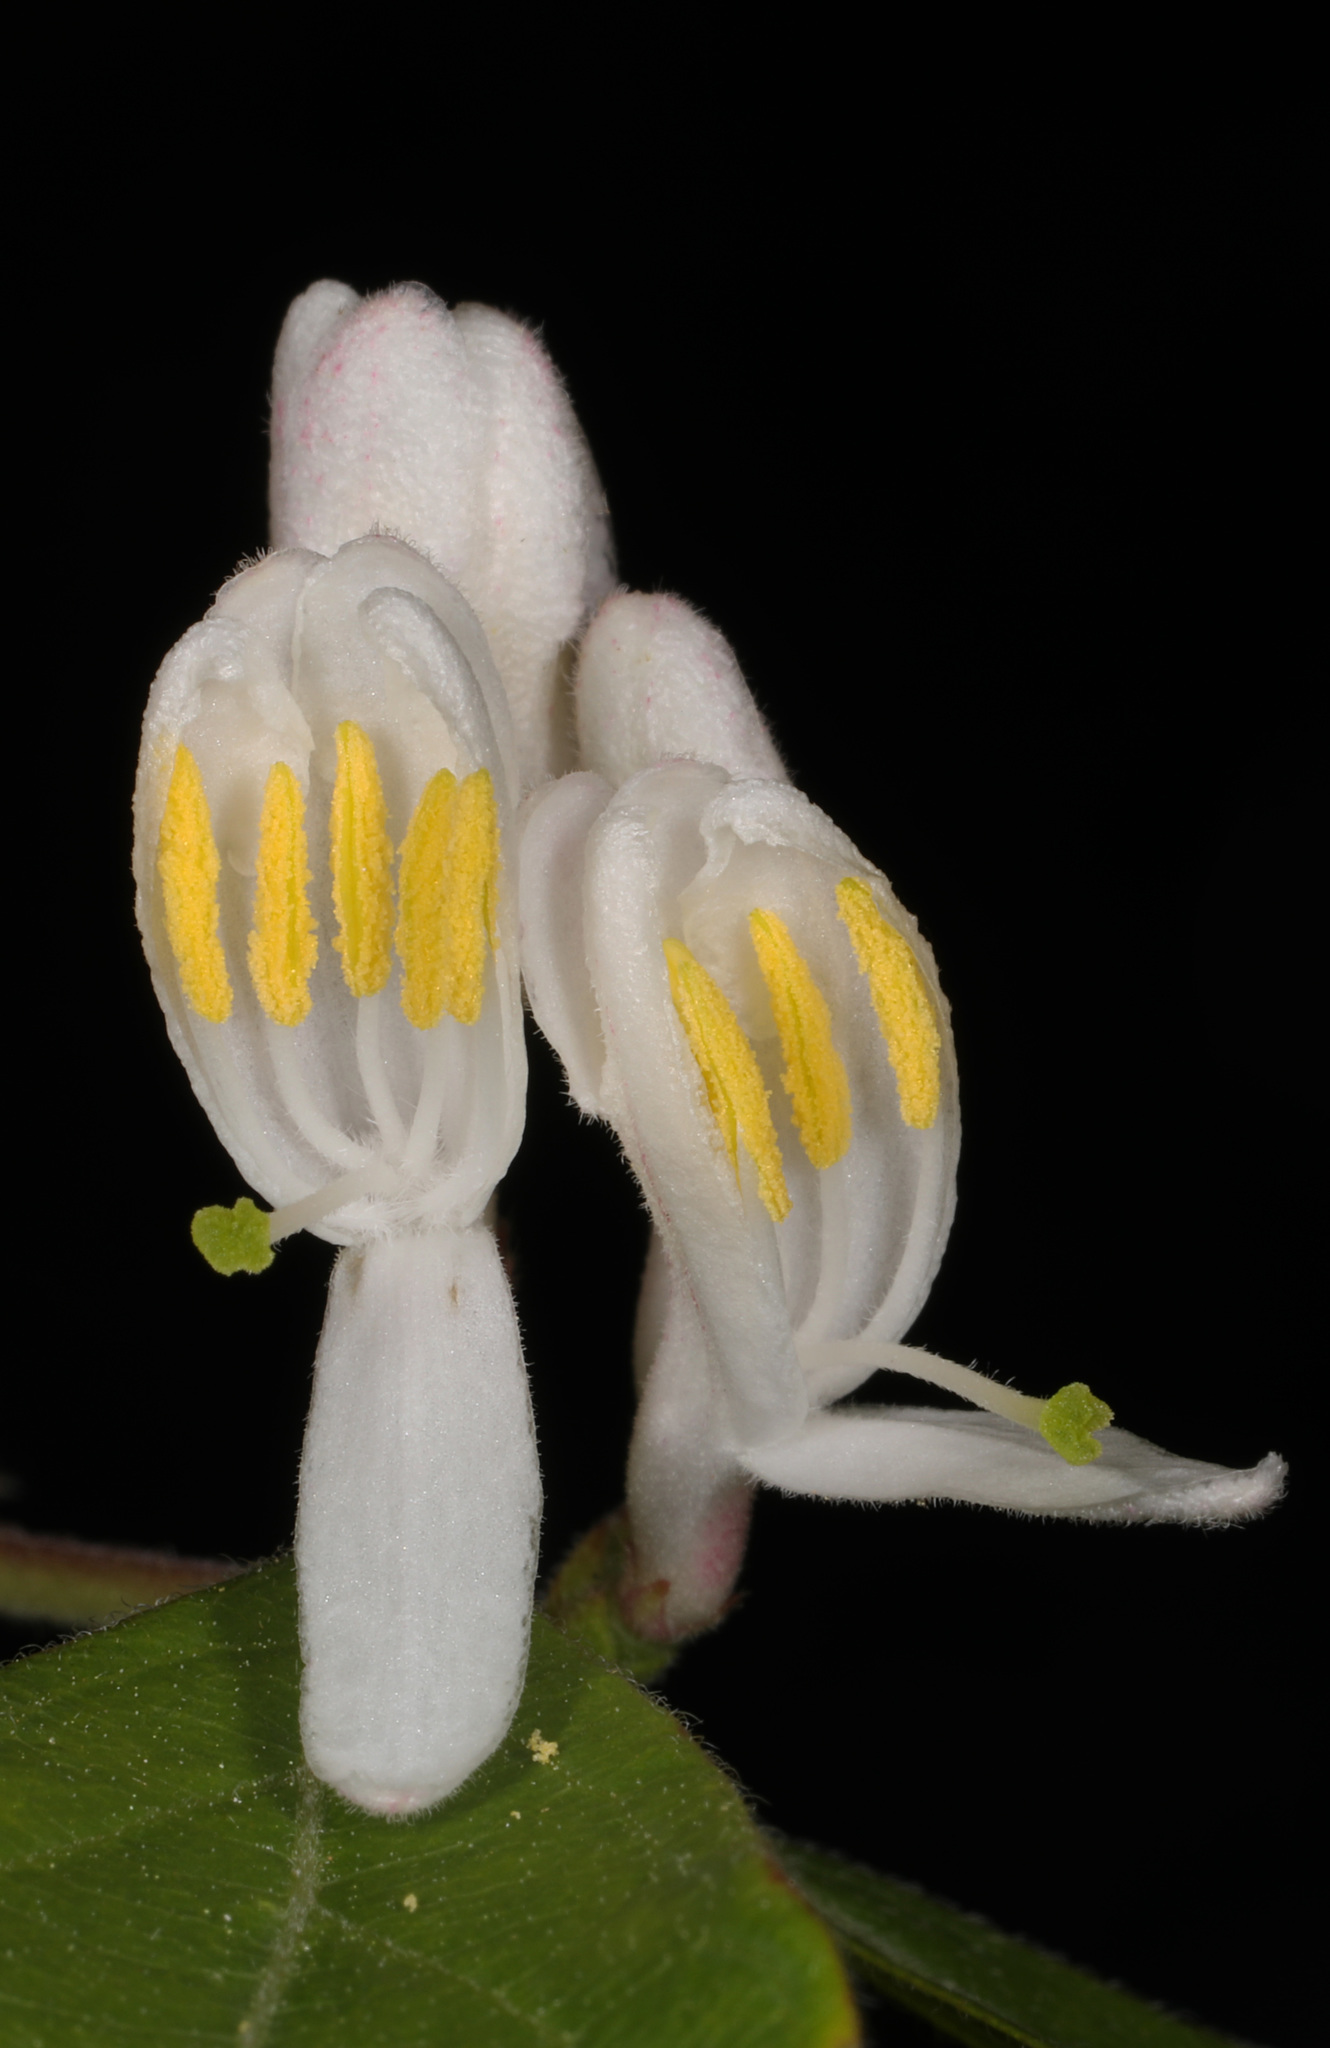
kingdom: Plantae
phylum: Tracheophyta
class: Magnoliopsida
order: Dipsacales
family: Caprifoliaceae
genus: Lonicera
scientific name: Lonicera maackii
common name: Amur honeysuckle
